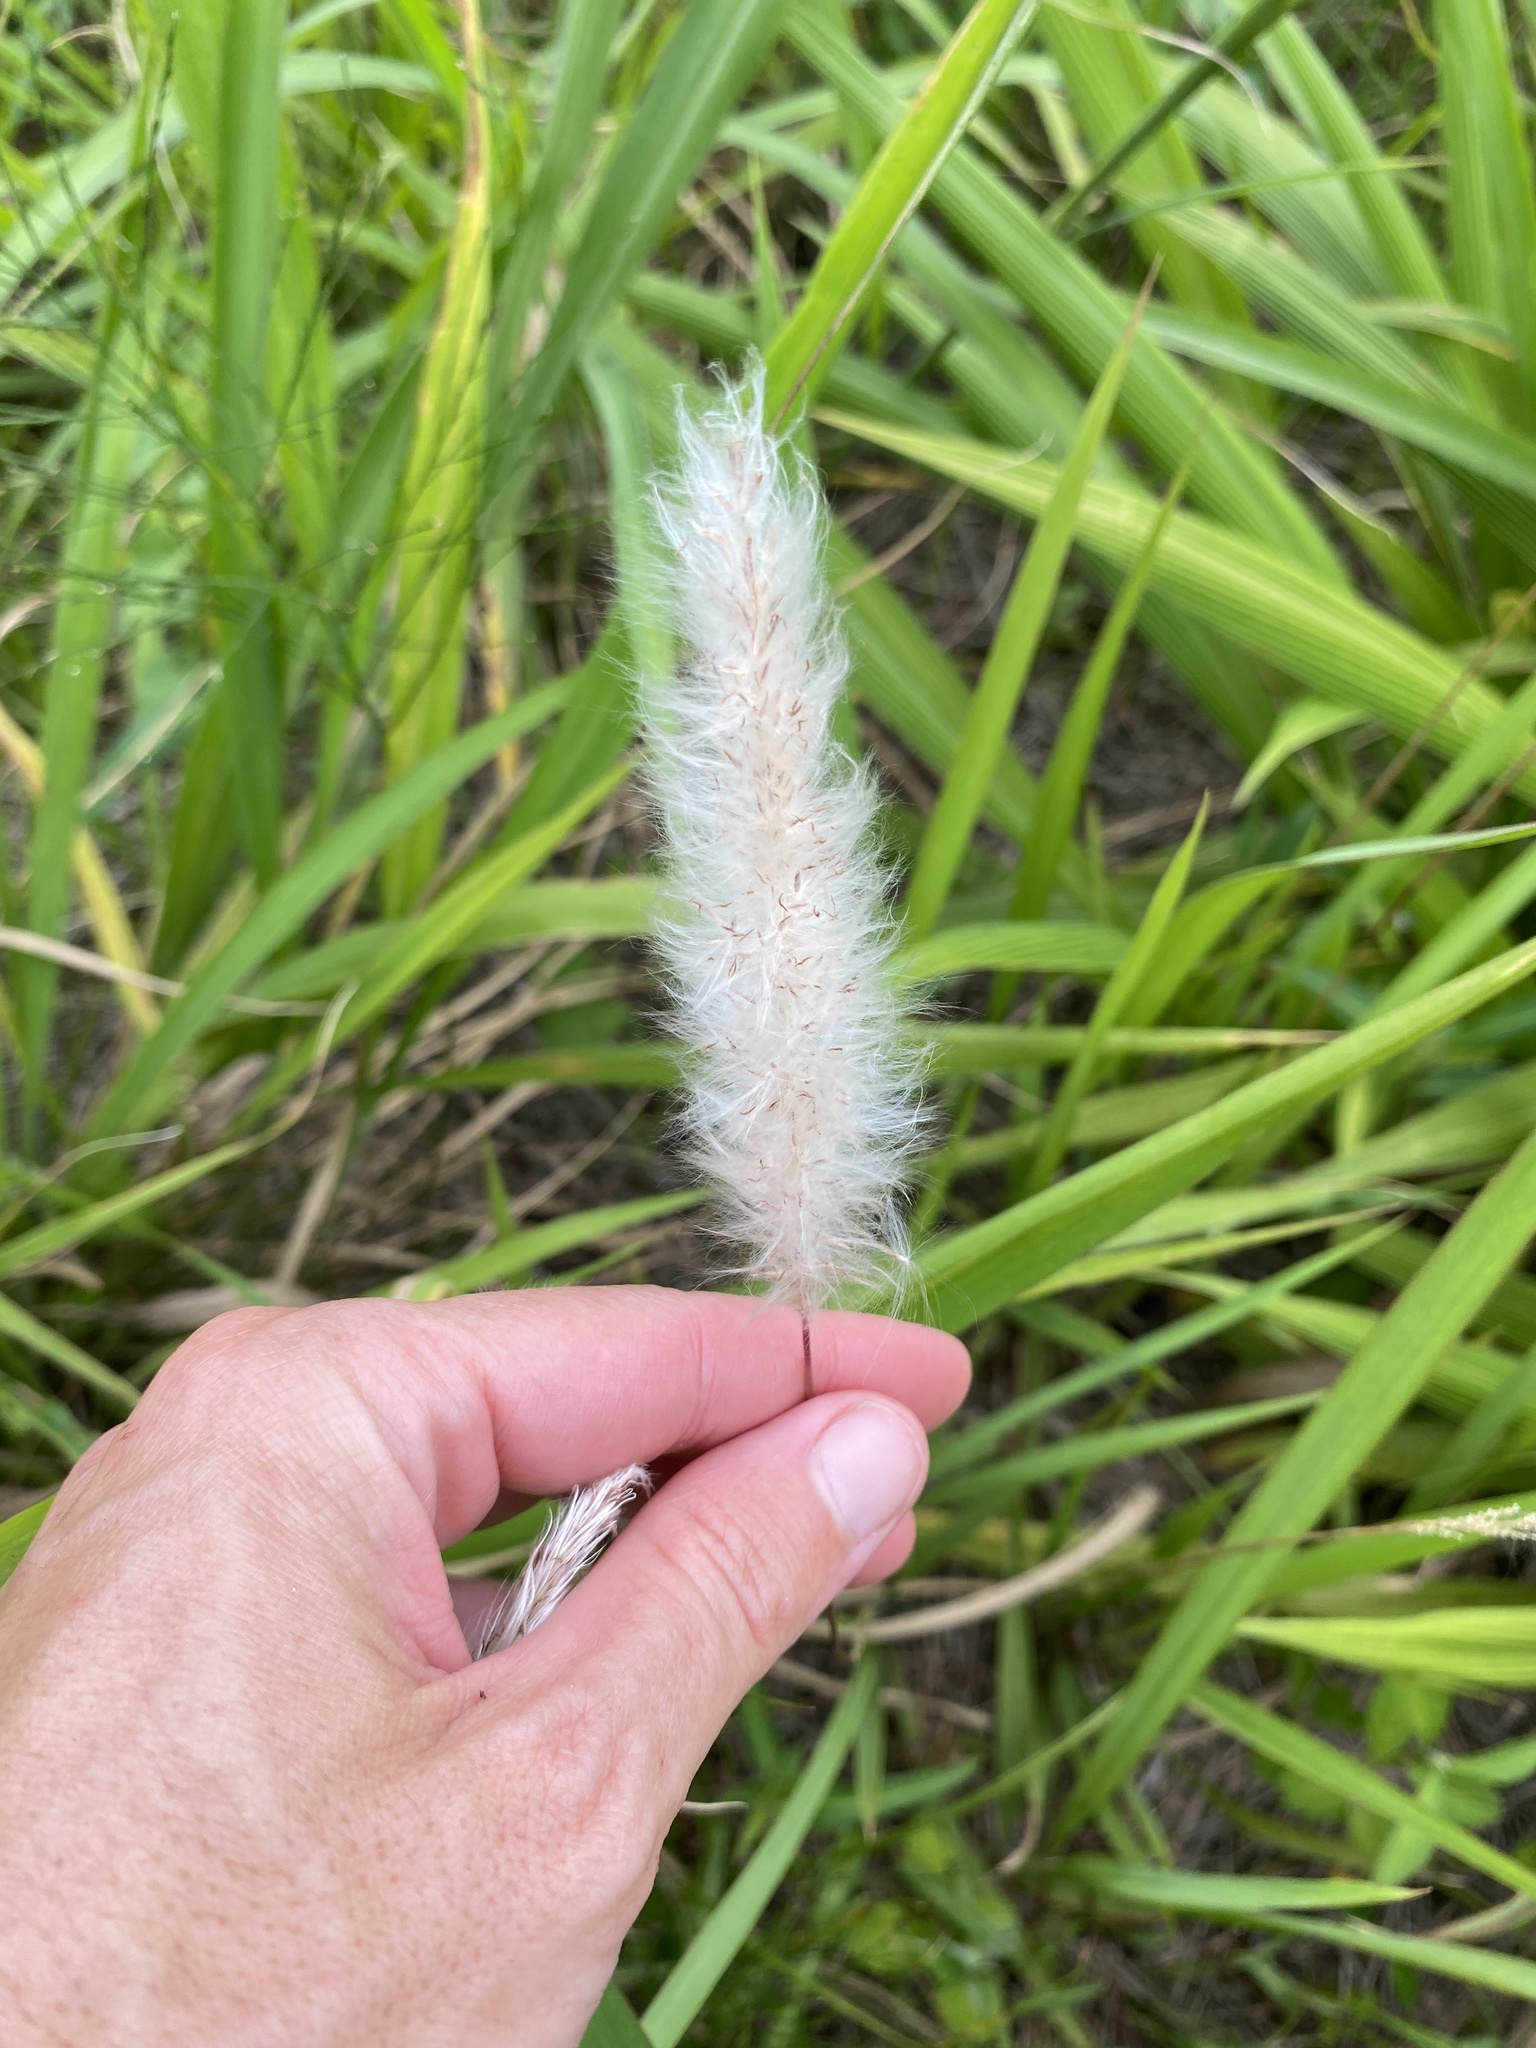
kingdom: Plantae
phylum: Tracheophyta
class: Liliopsida
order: Poales
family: Poaceae
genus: Imperata
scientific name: Imperata cylindrica
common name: Cogongrass
